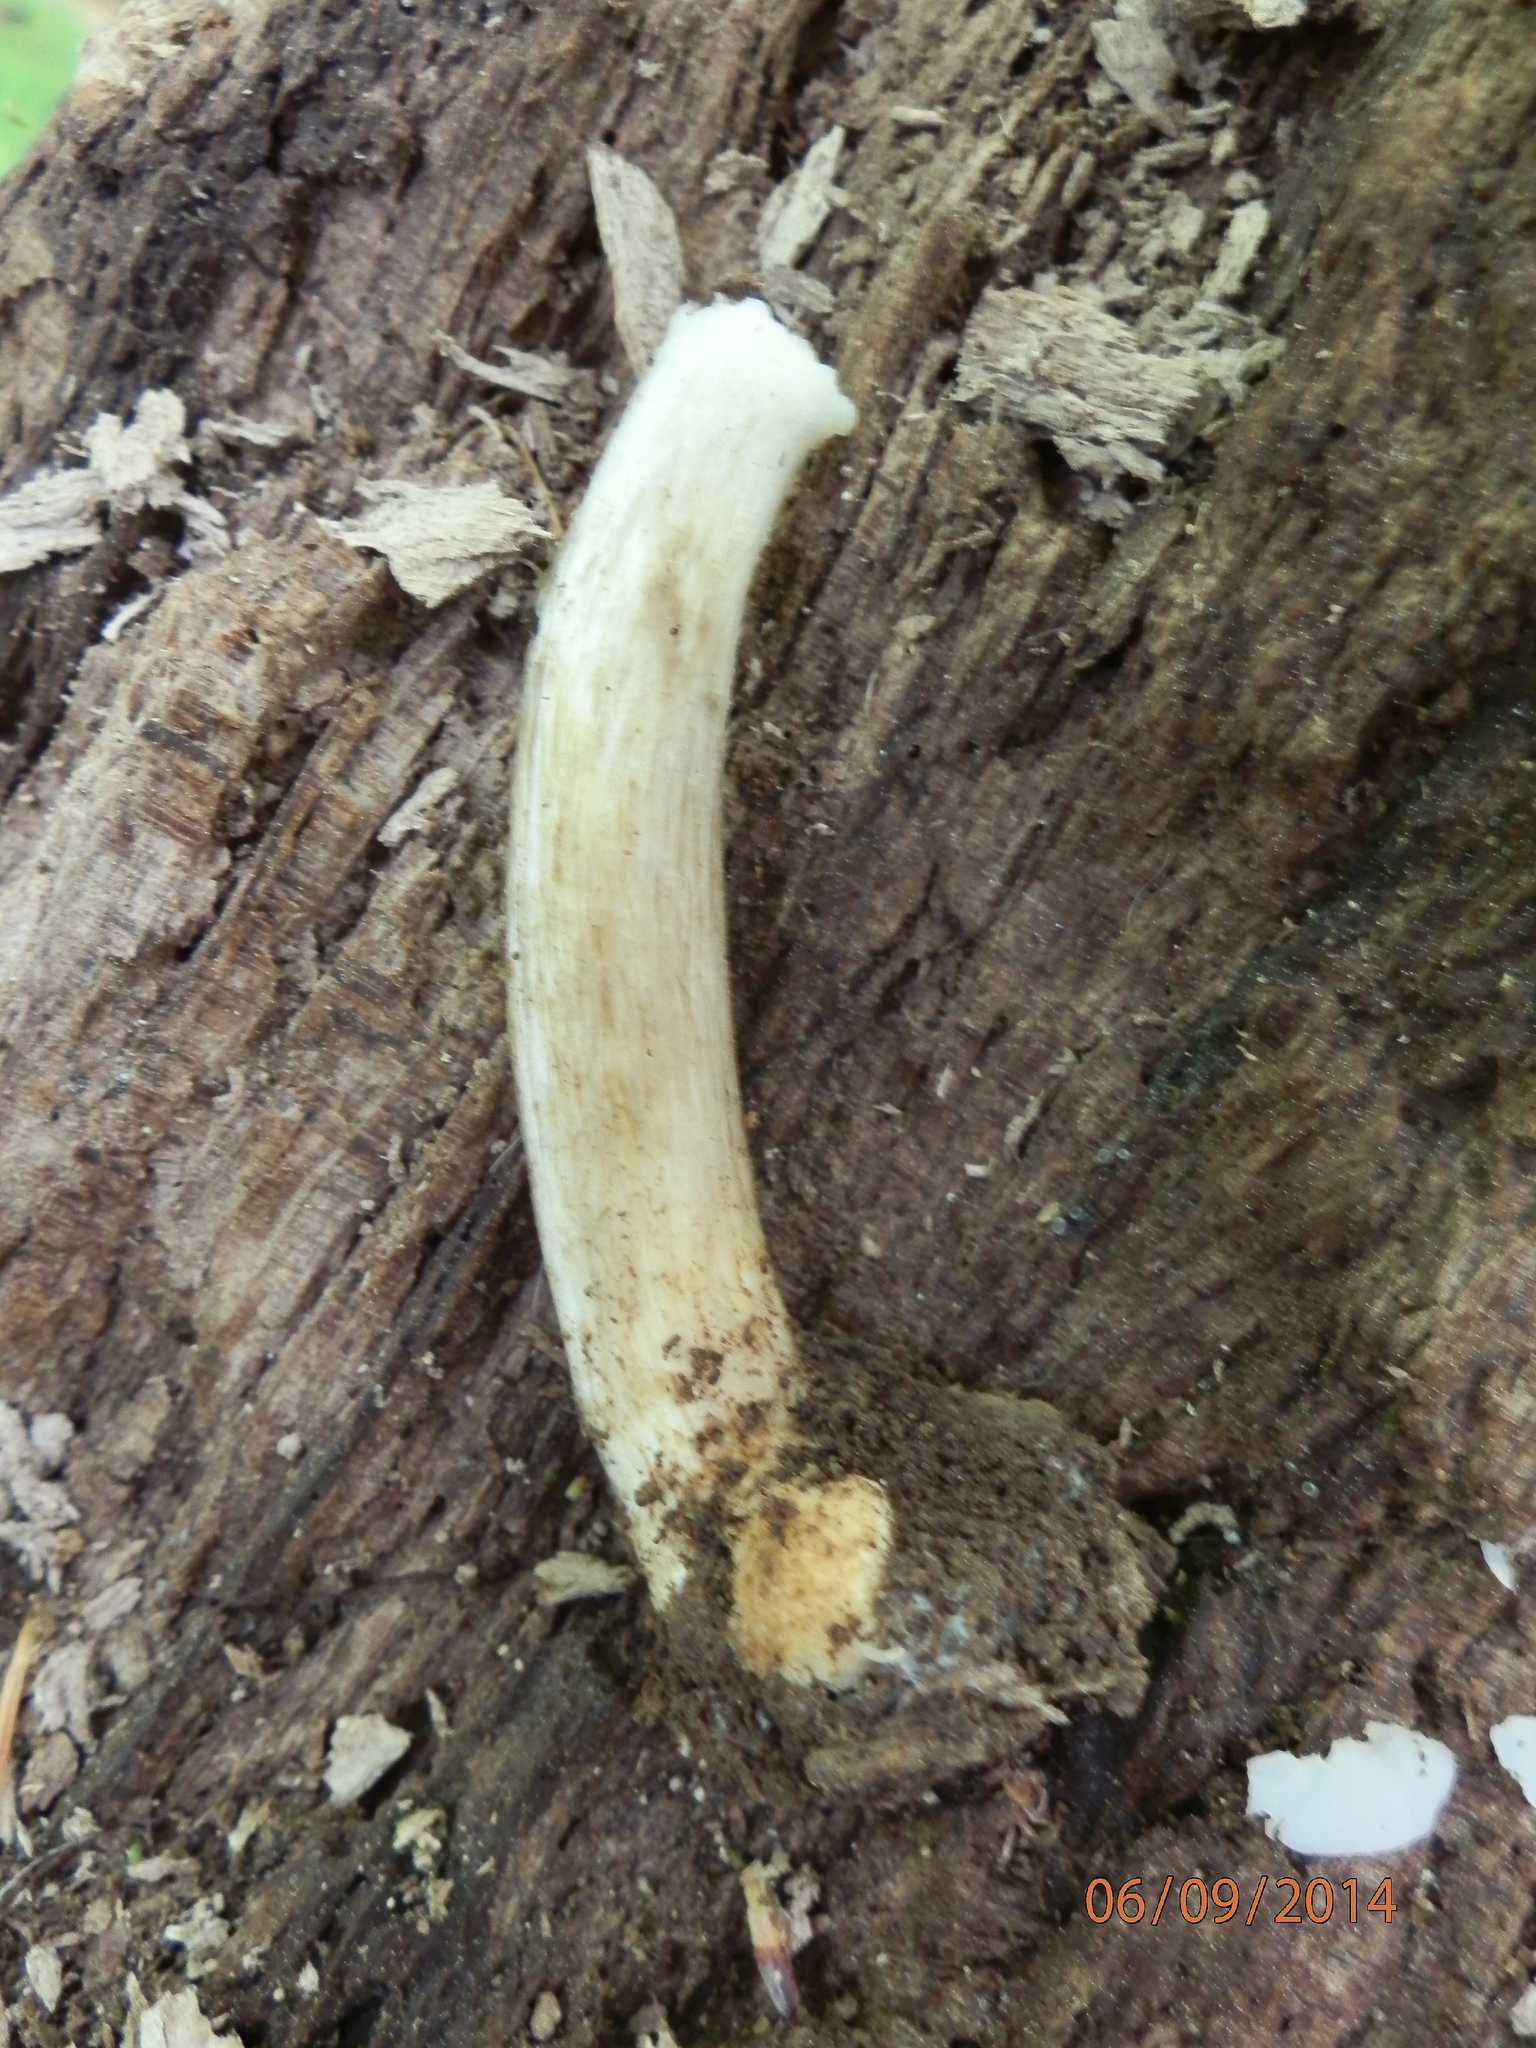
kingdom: Fungi
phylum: Basidiomycota
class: Agaricomycetes
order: Agaricales
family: Pluteaceae
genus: Pluteus
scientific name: Pluteus cervinus
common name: Deer shield
